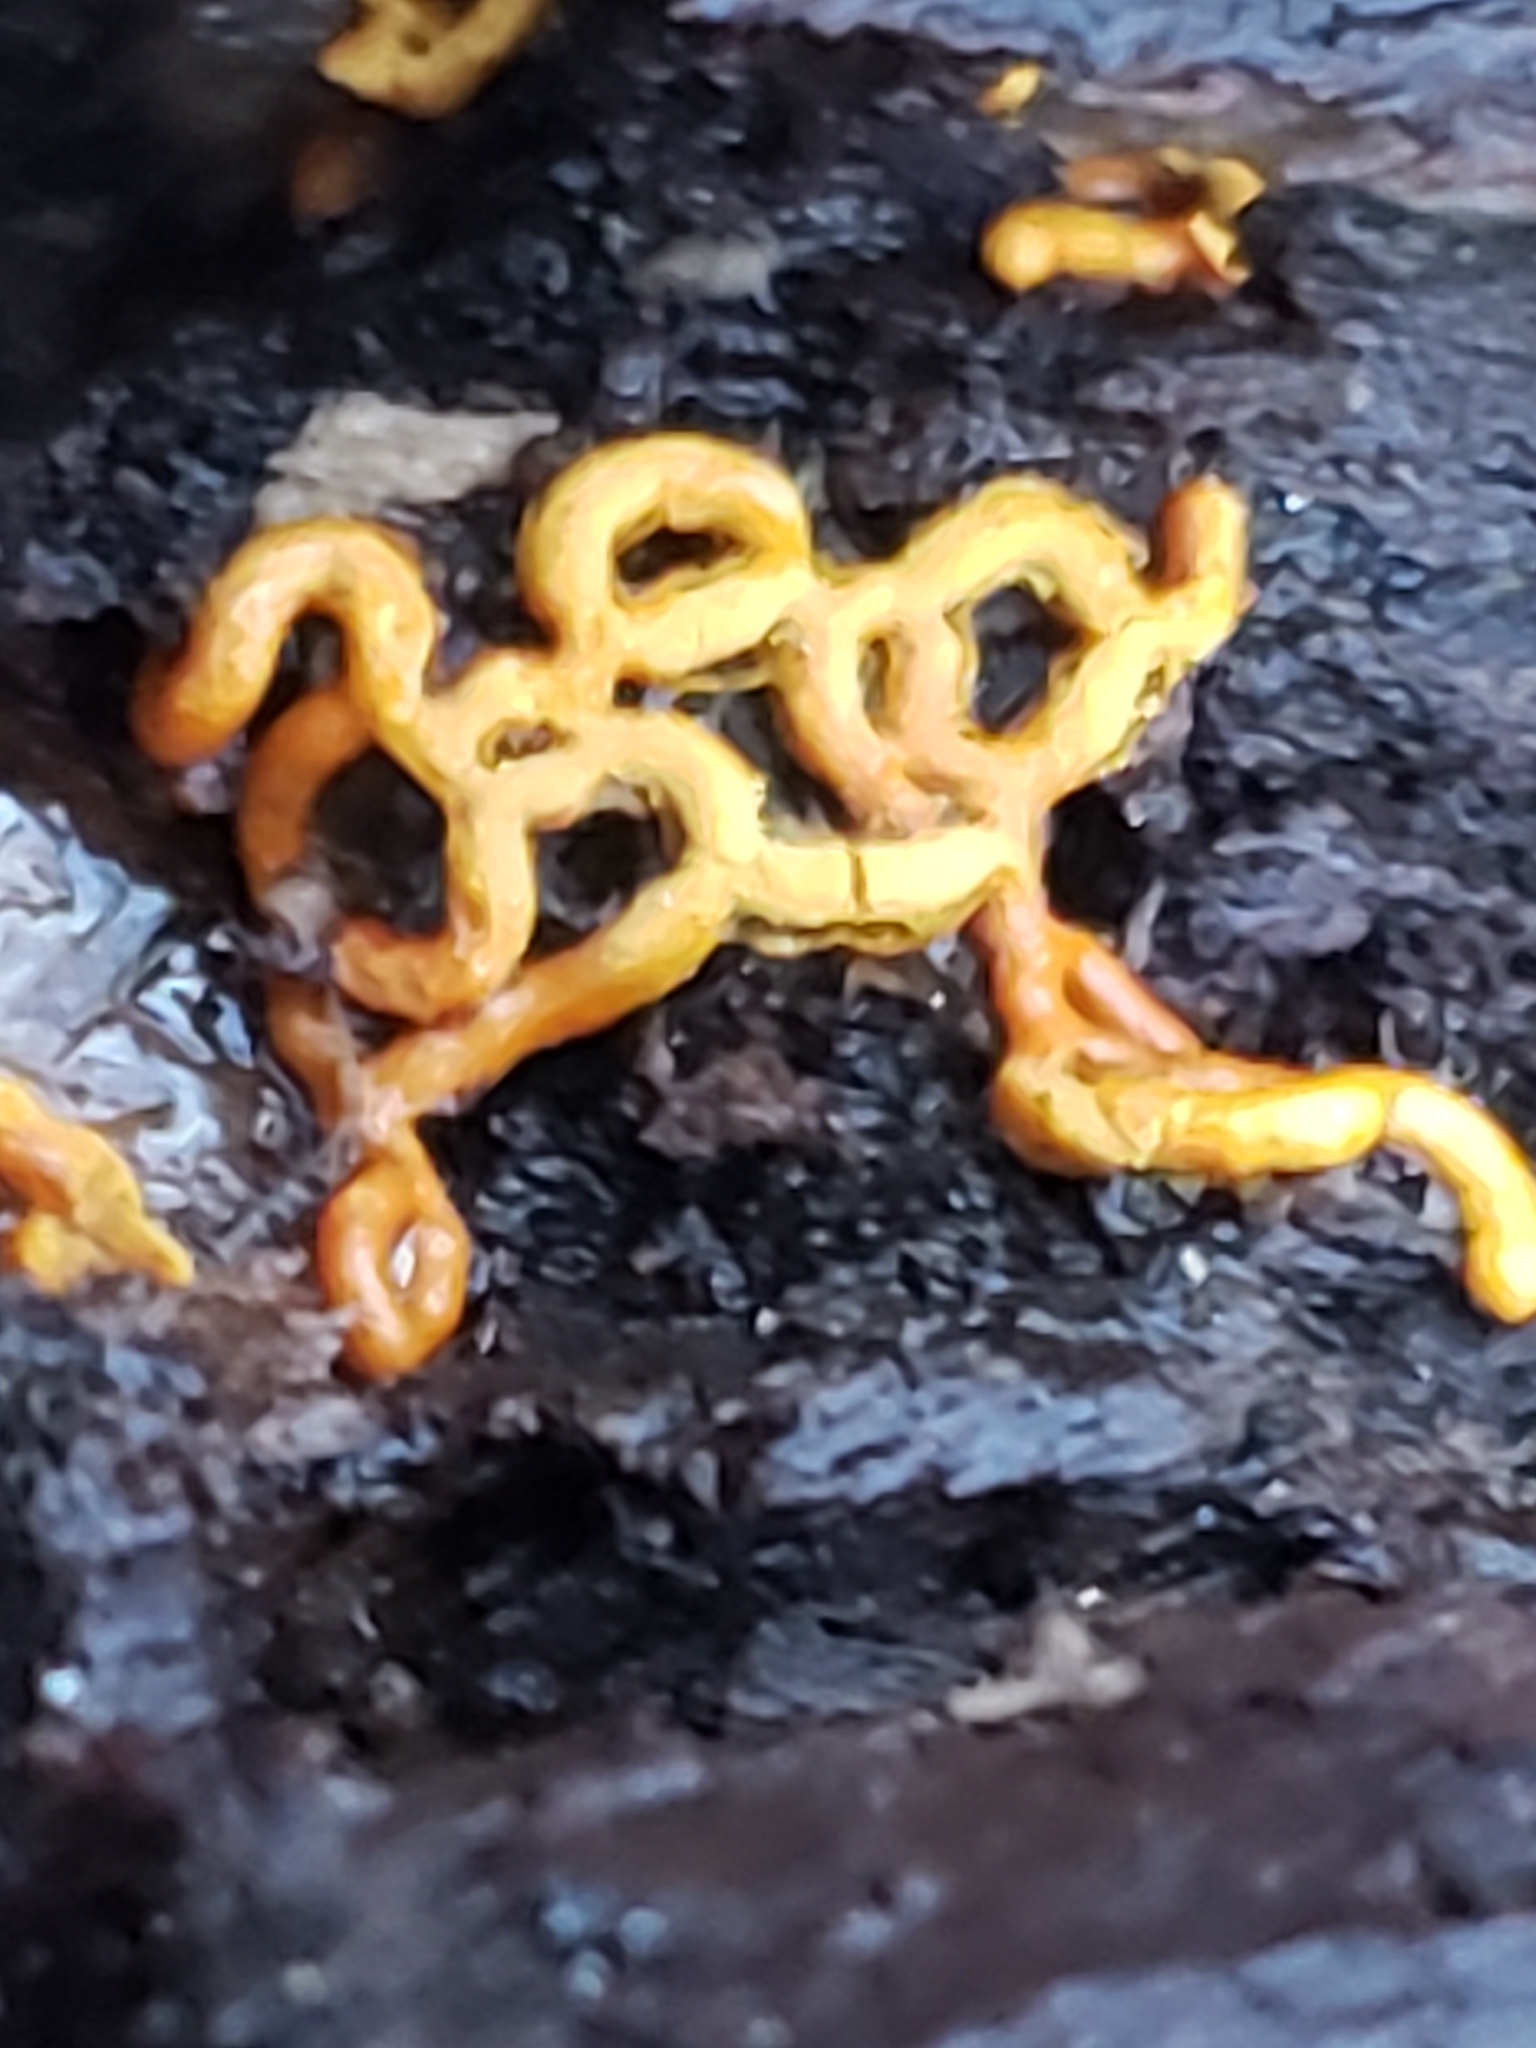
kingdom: Protozoa
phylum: Mycetozoa
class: Myxomycetes
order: Trichiales
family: Arcyriaceae
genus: Hemitrichia
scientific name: Hemitrichia serpula
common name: Pretzel slime mold
